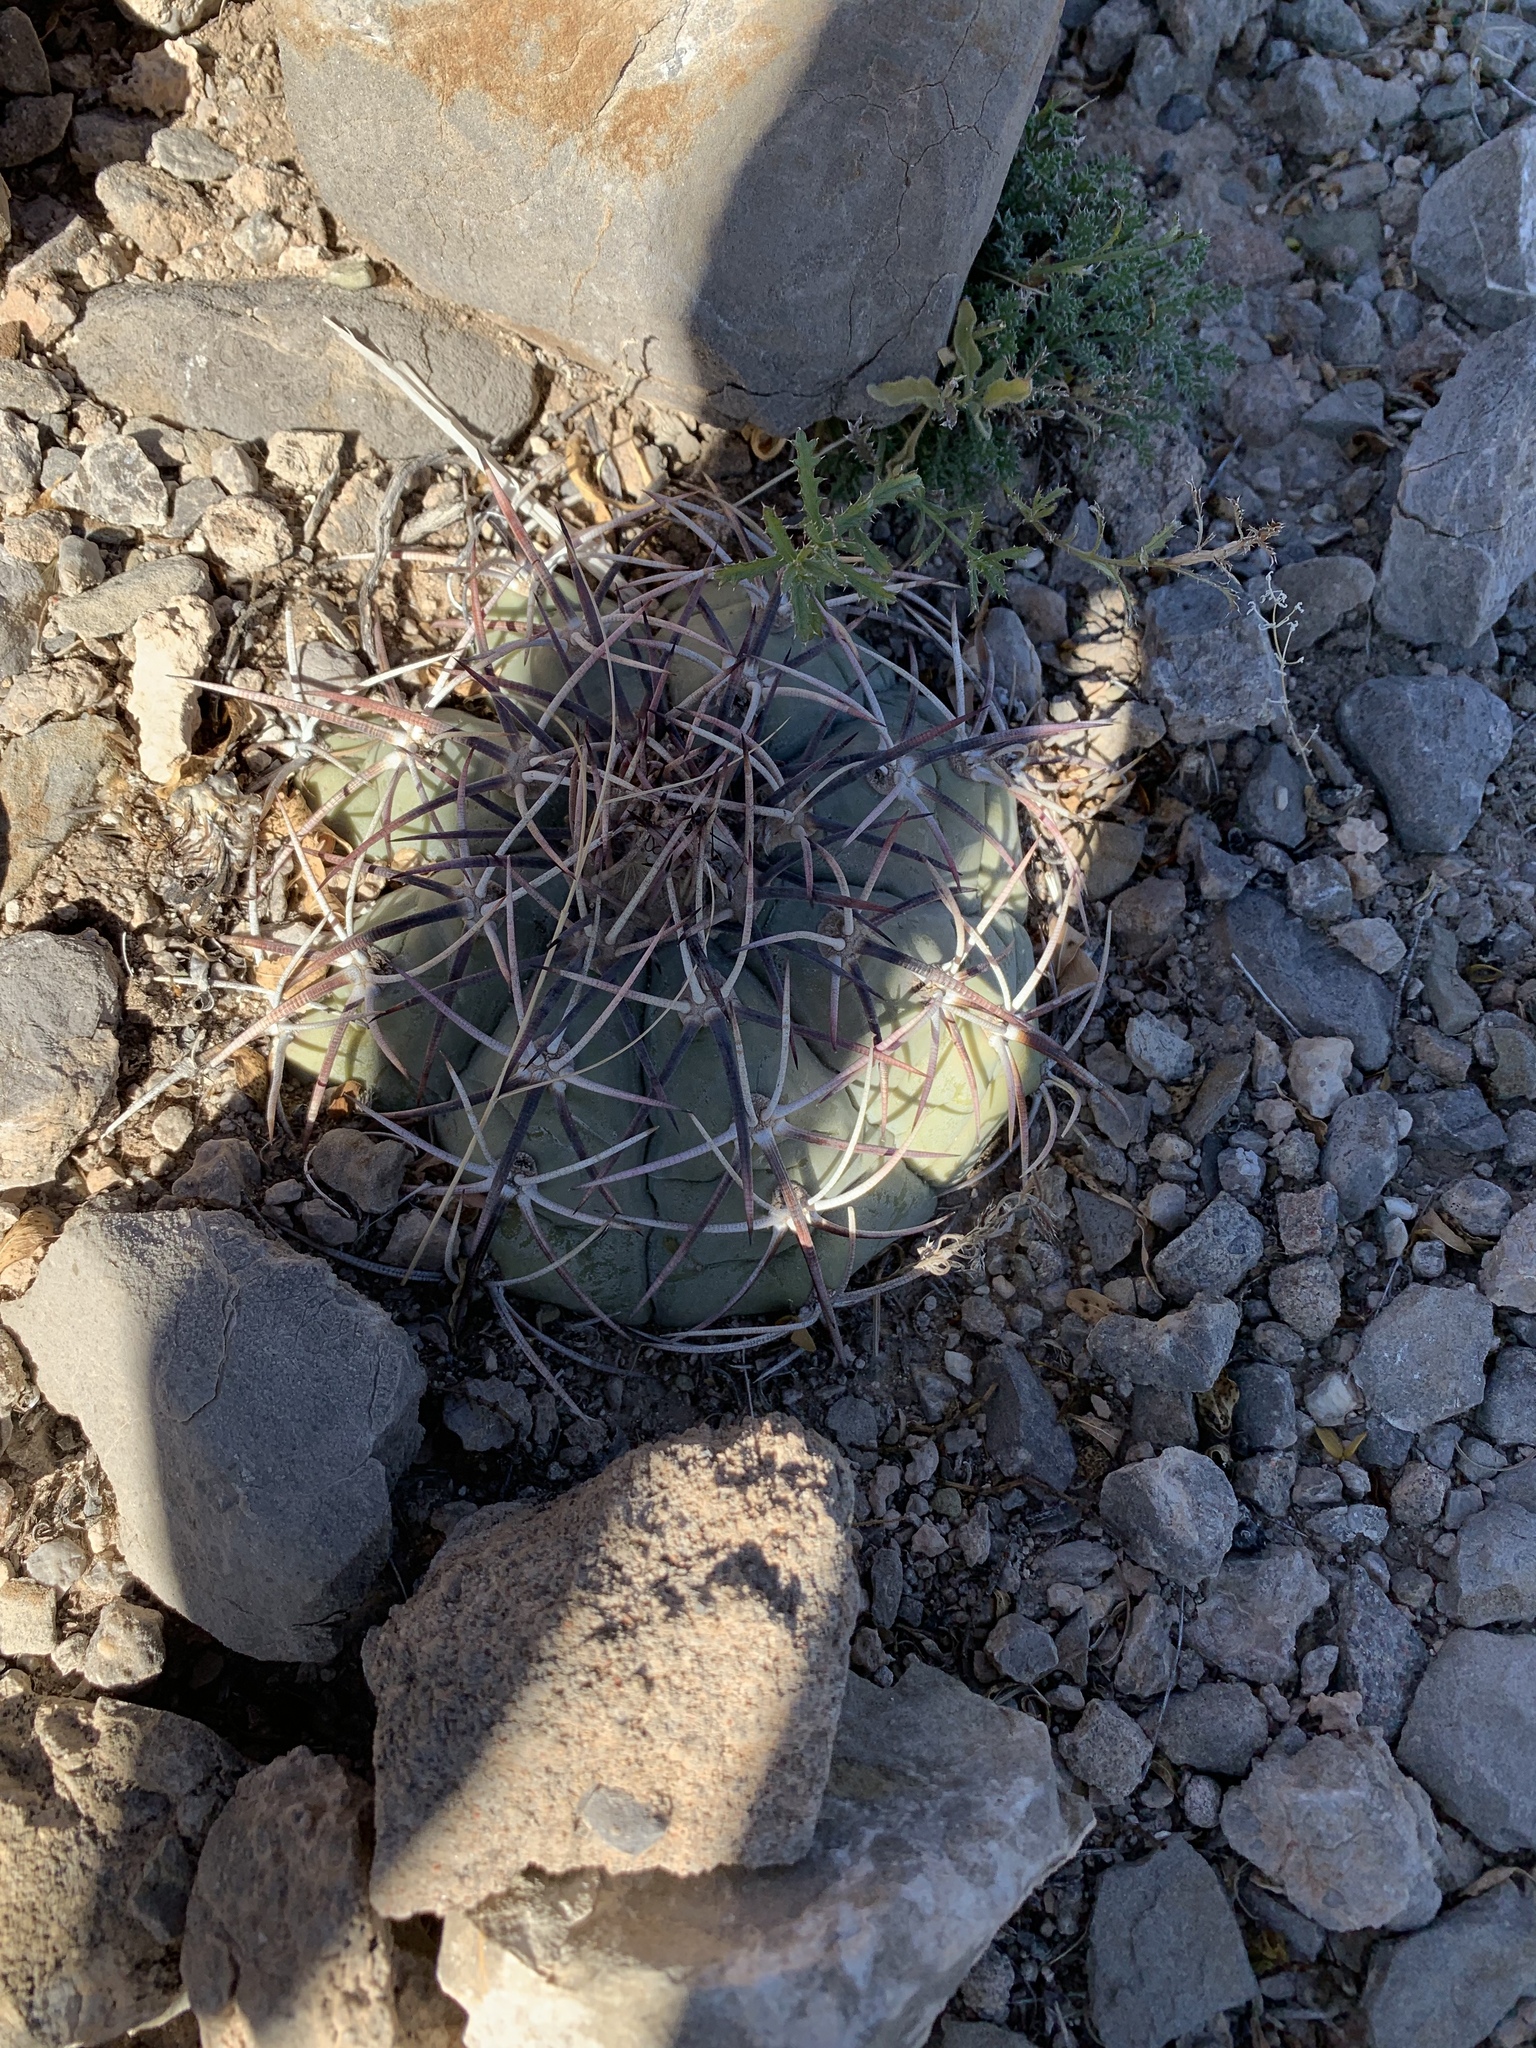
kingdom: Plantae
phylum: Tracheophyta
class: Magnoliopsida
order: Caryophyllales
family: Cactaceae
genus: Echinocactus
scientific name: Echinocactus horizonthalonius
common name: Devilshead
